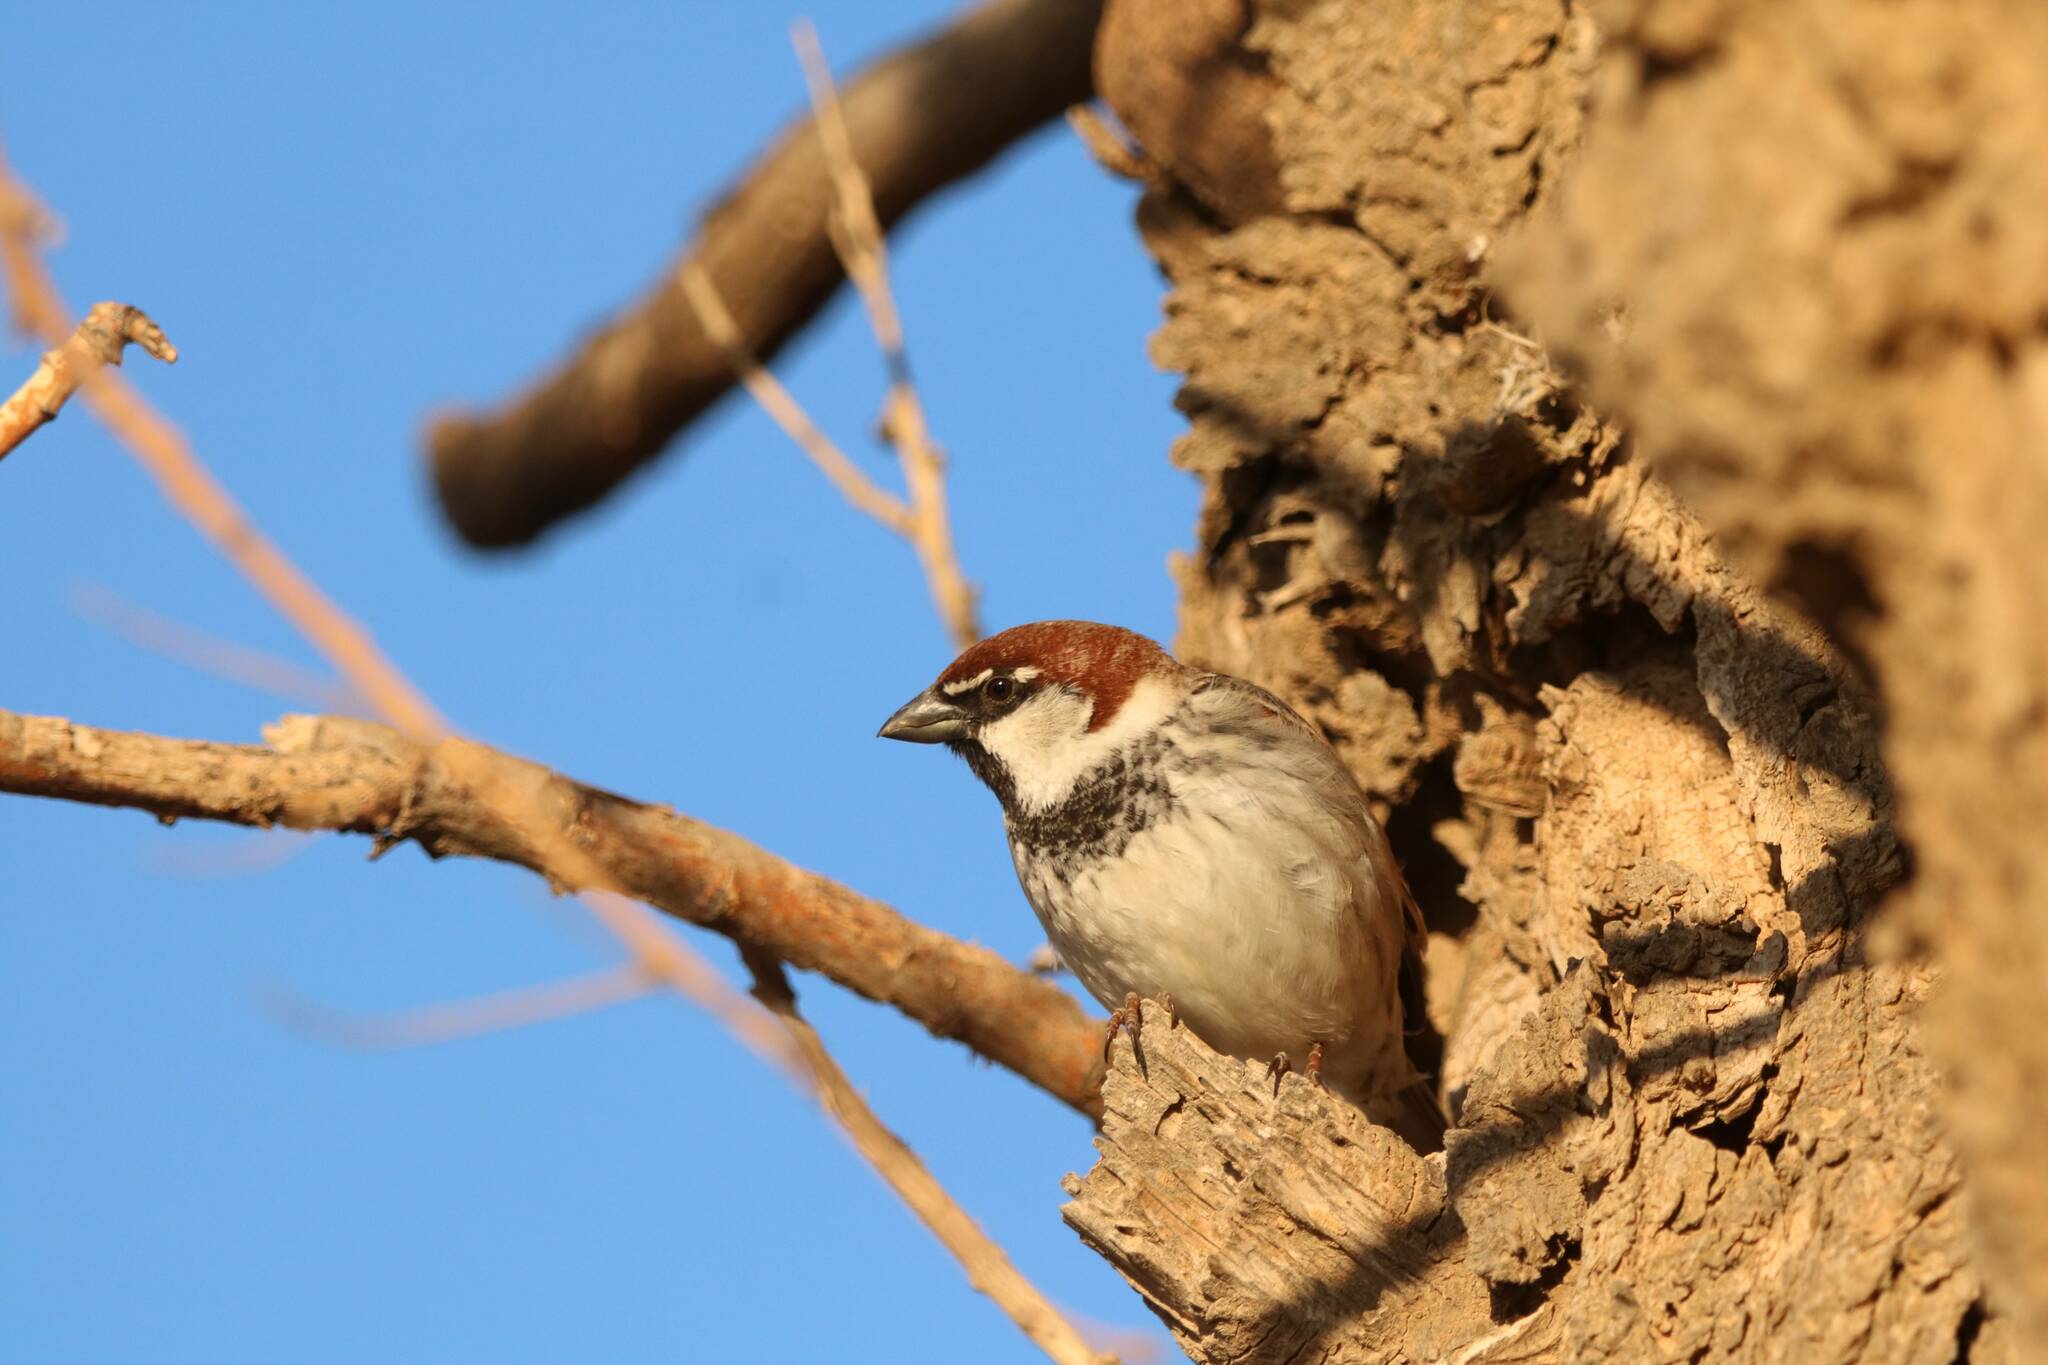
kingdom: Animalia
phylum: Chordata
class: Aves
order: Passeriformes
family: Passeridae
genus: Passer
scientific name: Passer hispaniolensis
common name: Spanish sparrow
